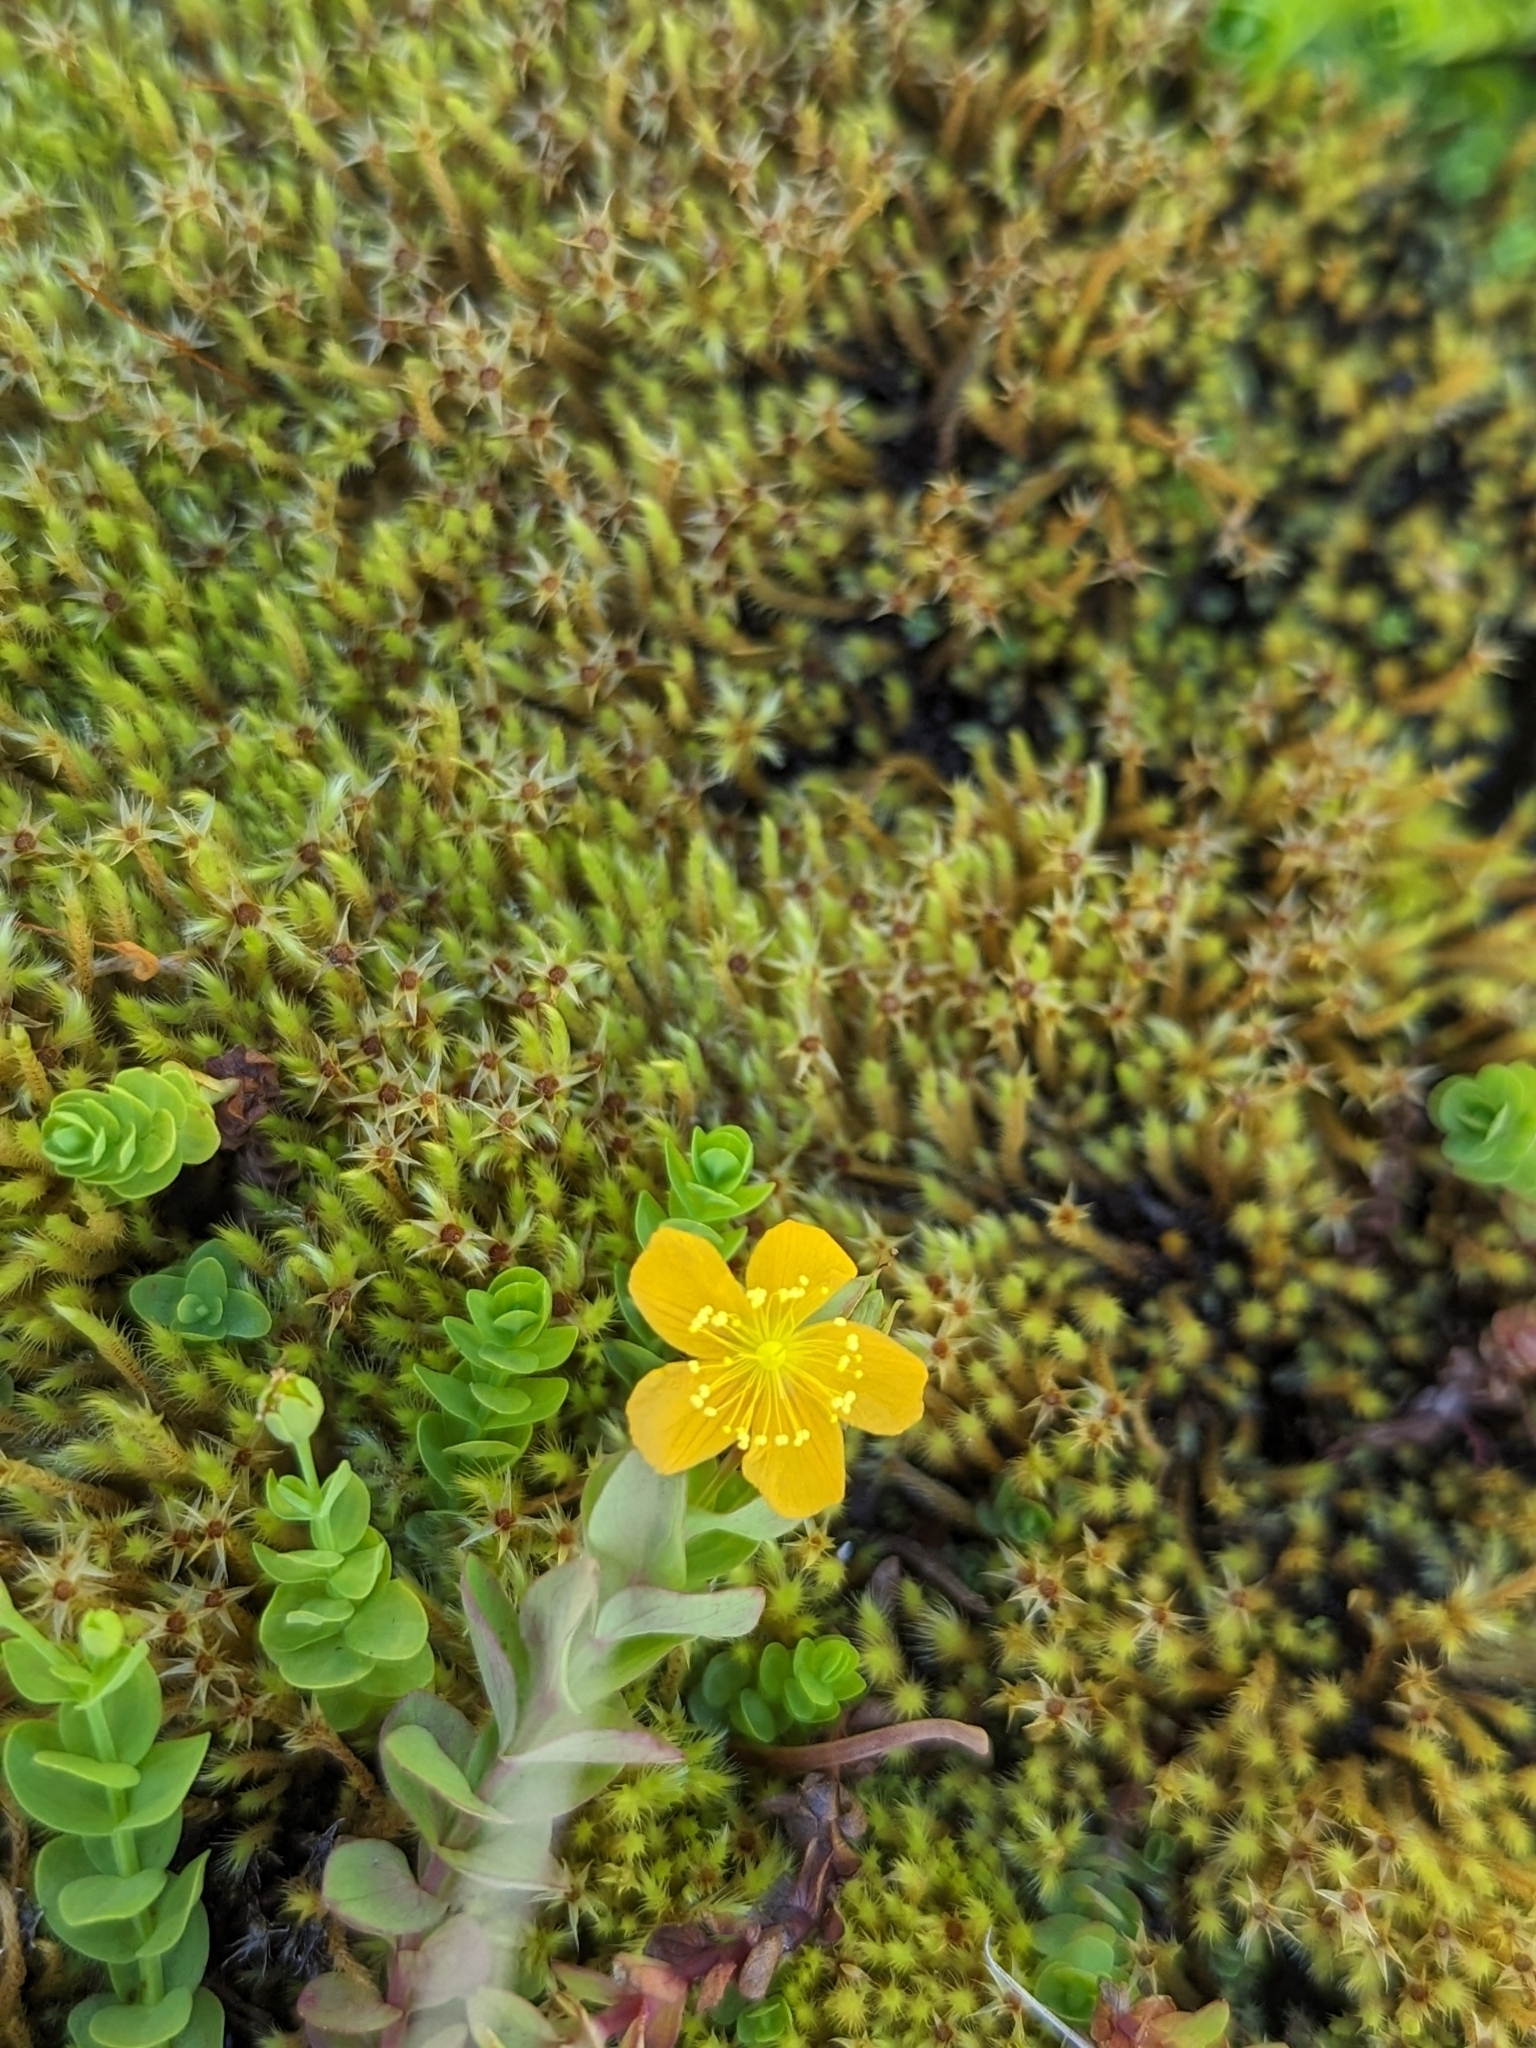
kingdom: Plantae
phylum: Tracheophyta
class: Magnoliopsida
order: Malpighiales
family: Hypericaceae
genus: Hypericum
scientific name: Hypericum anagalloides
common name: Bog st. john's-wort
